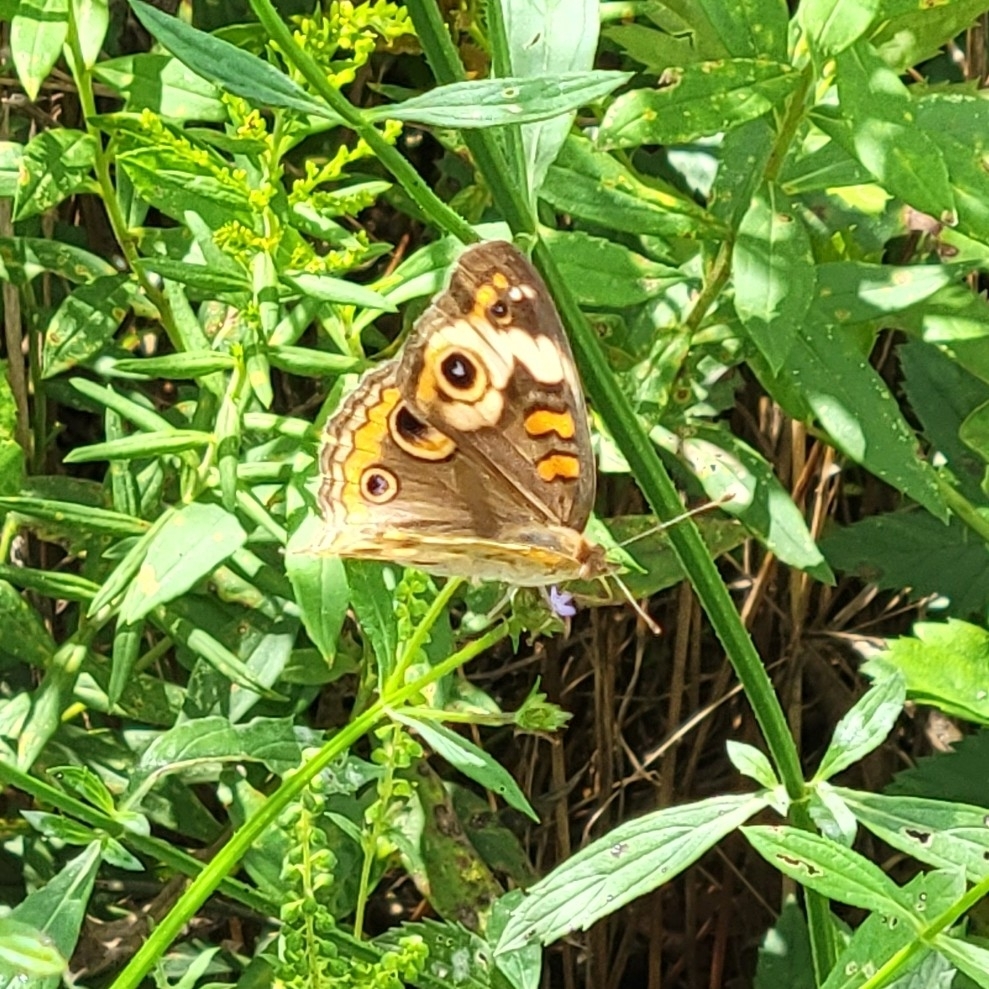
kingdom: Animalia
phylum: Arthropoda
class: Insecta
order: Lepidoptera
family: Nymphalidae
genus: Junonia
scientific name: Junonia coenia
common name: Common buckeye
